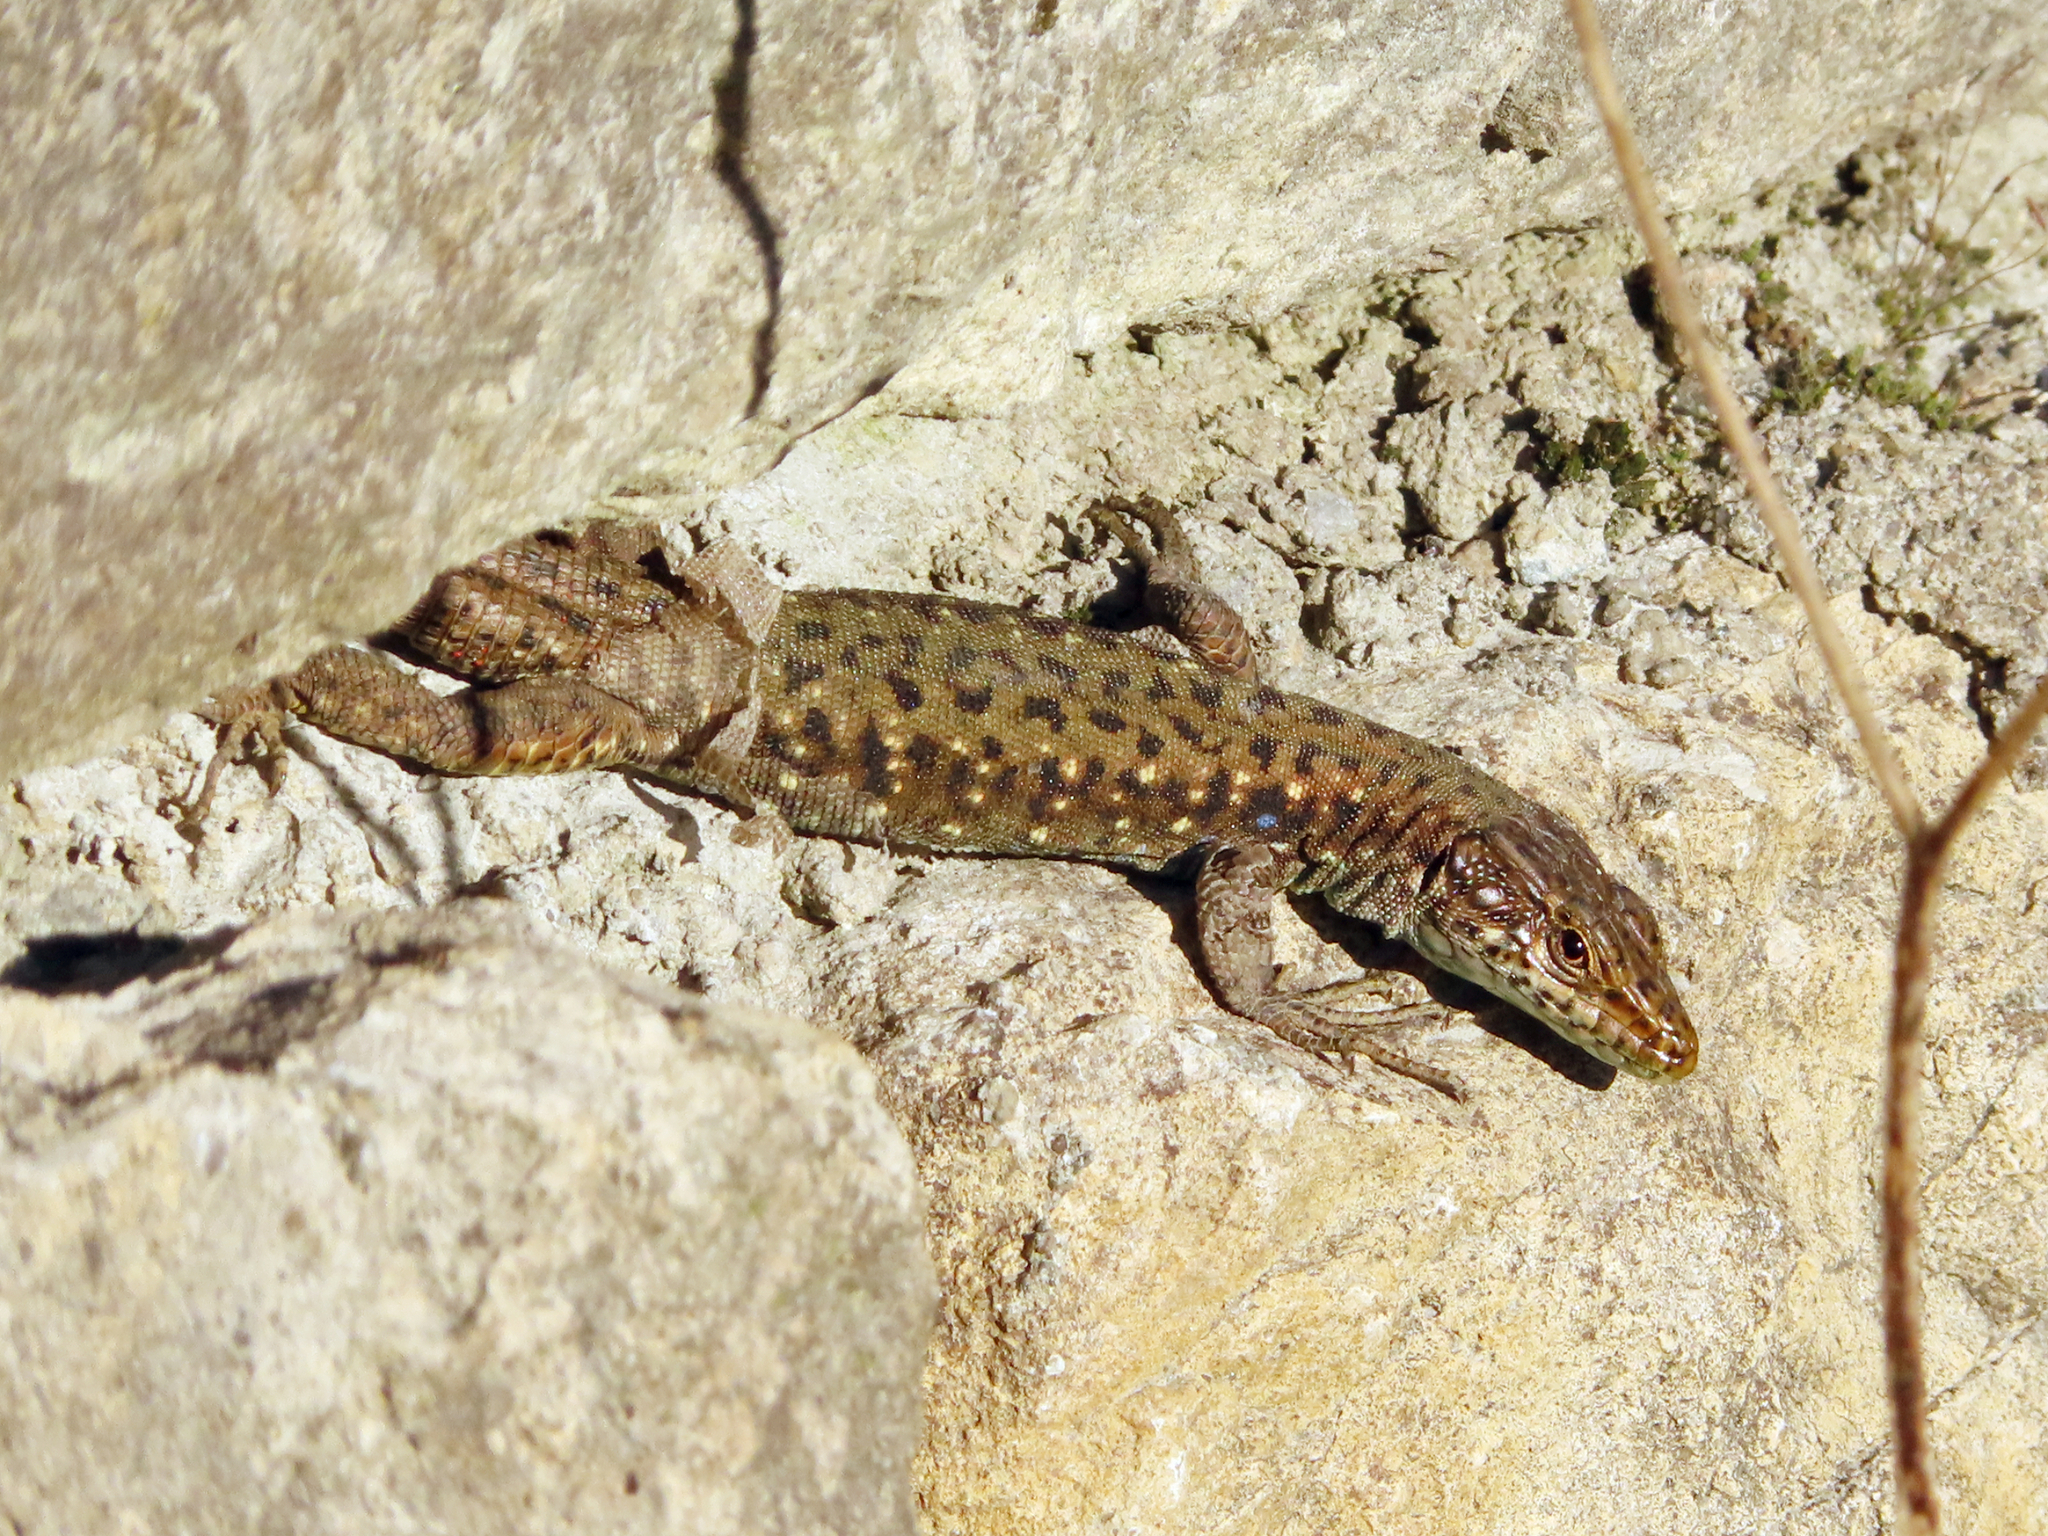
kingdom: Animalia
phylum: Chordata
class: Squamata
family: Lacertidae
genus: Darevskia
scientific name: Darevskia rudis
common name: Spiny-tailed lizard
